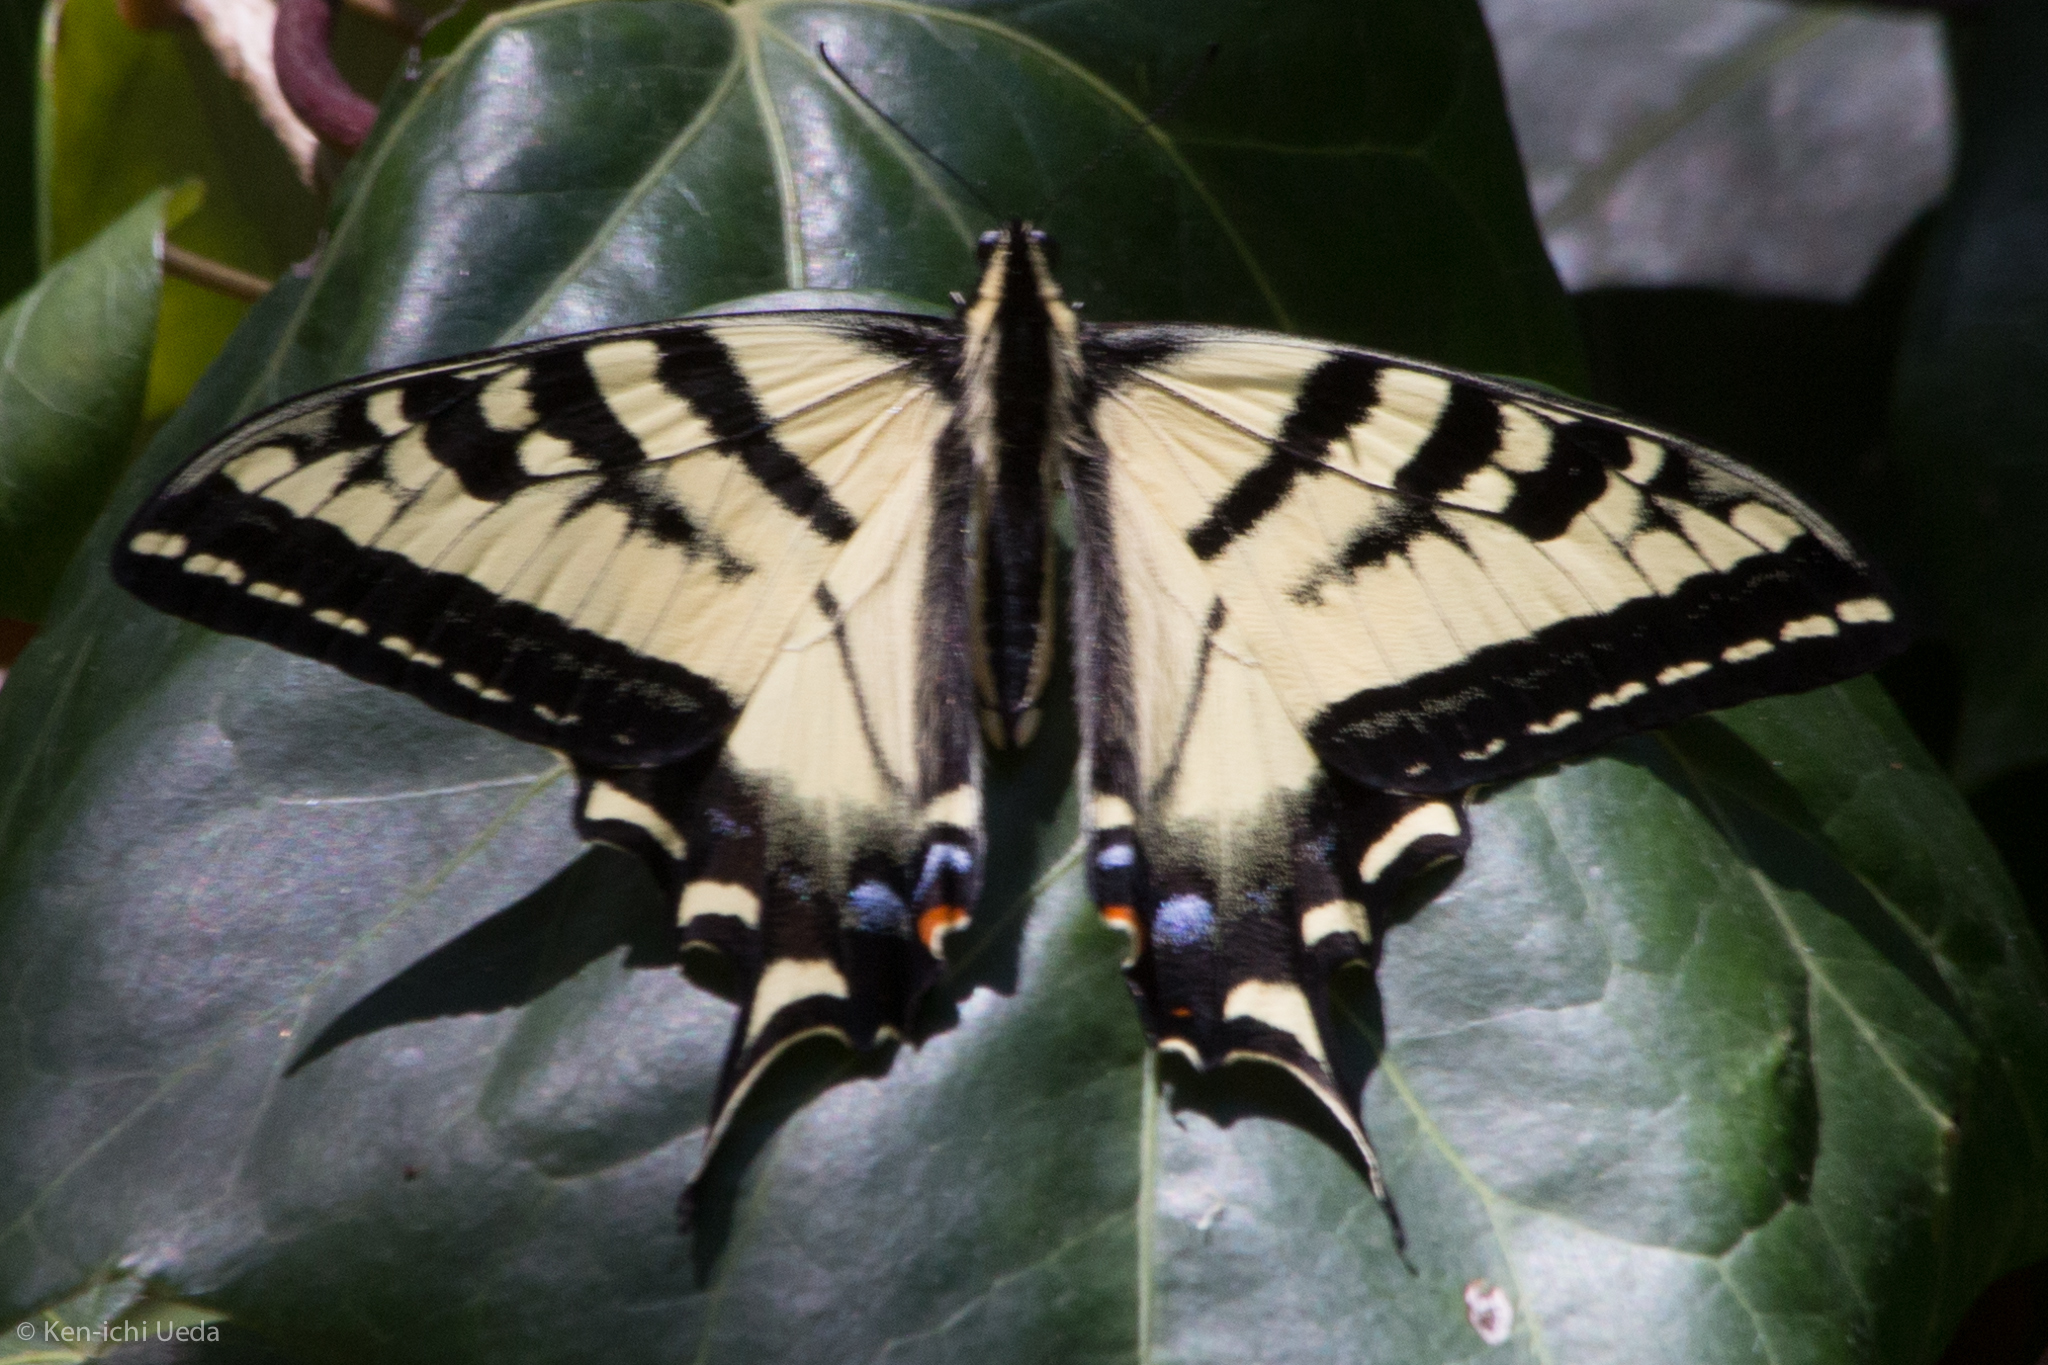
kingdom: Animalia
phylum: Arthropoda
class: Insecta
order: Lepidoptera
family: Papilionidae
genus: Papilio
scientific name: Papilio rutulus
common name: Western tiger swallowtail
